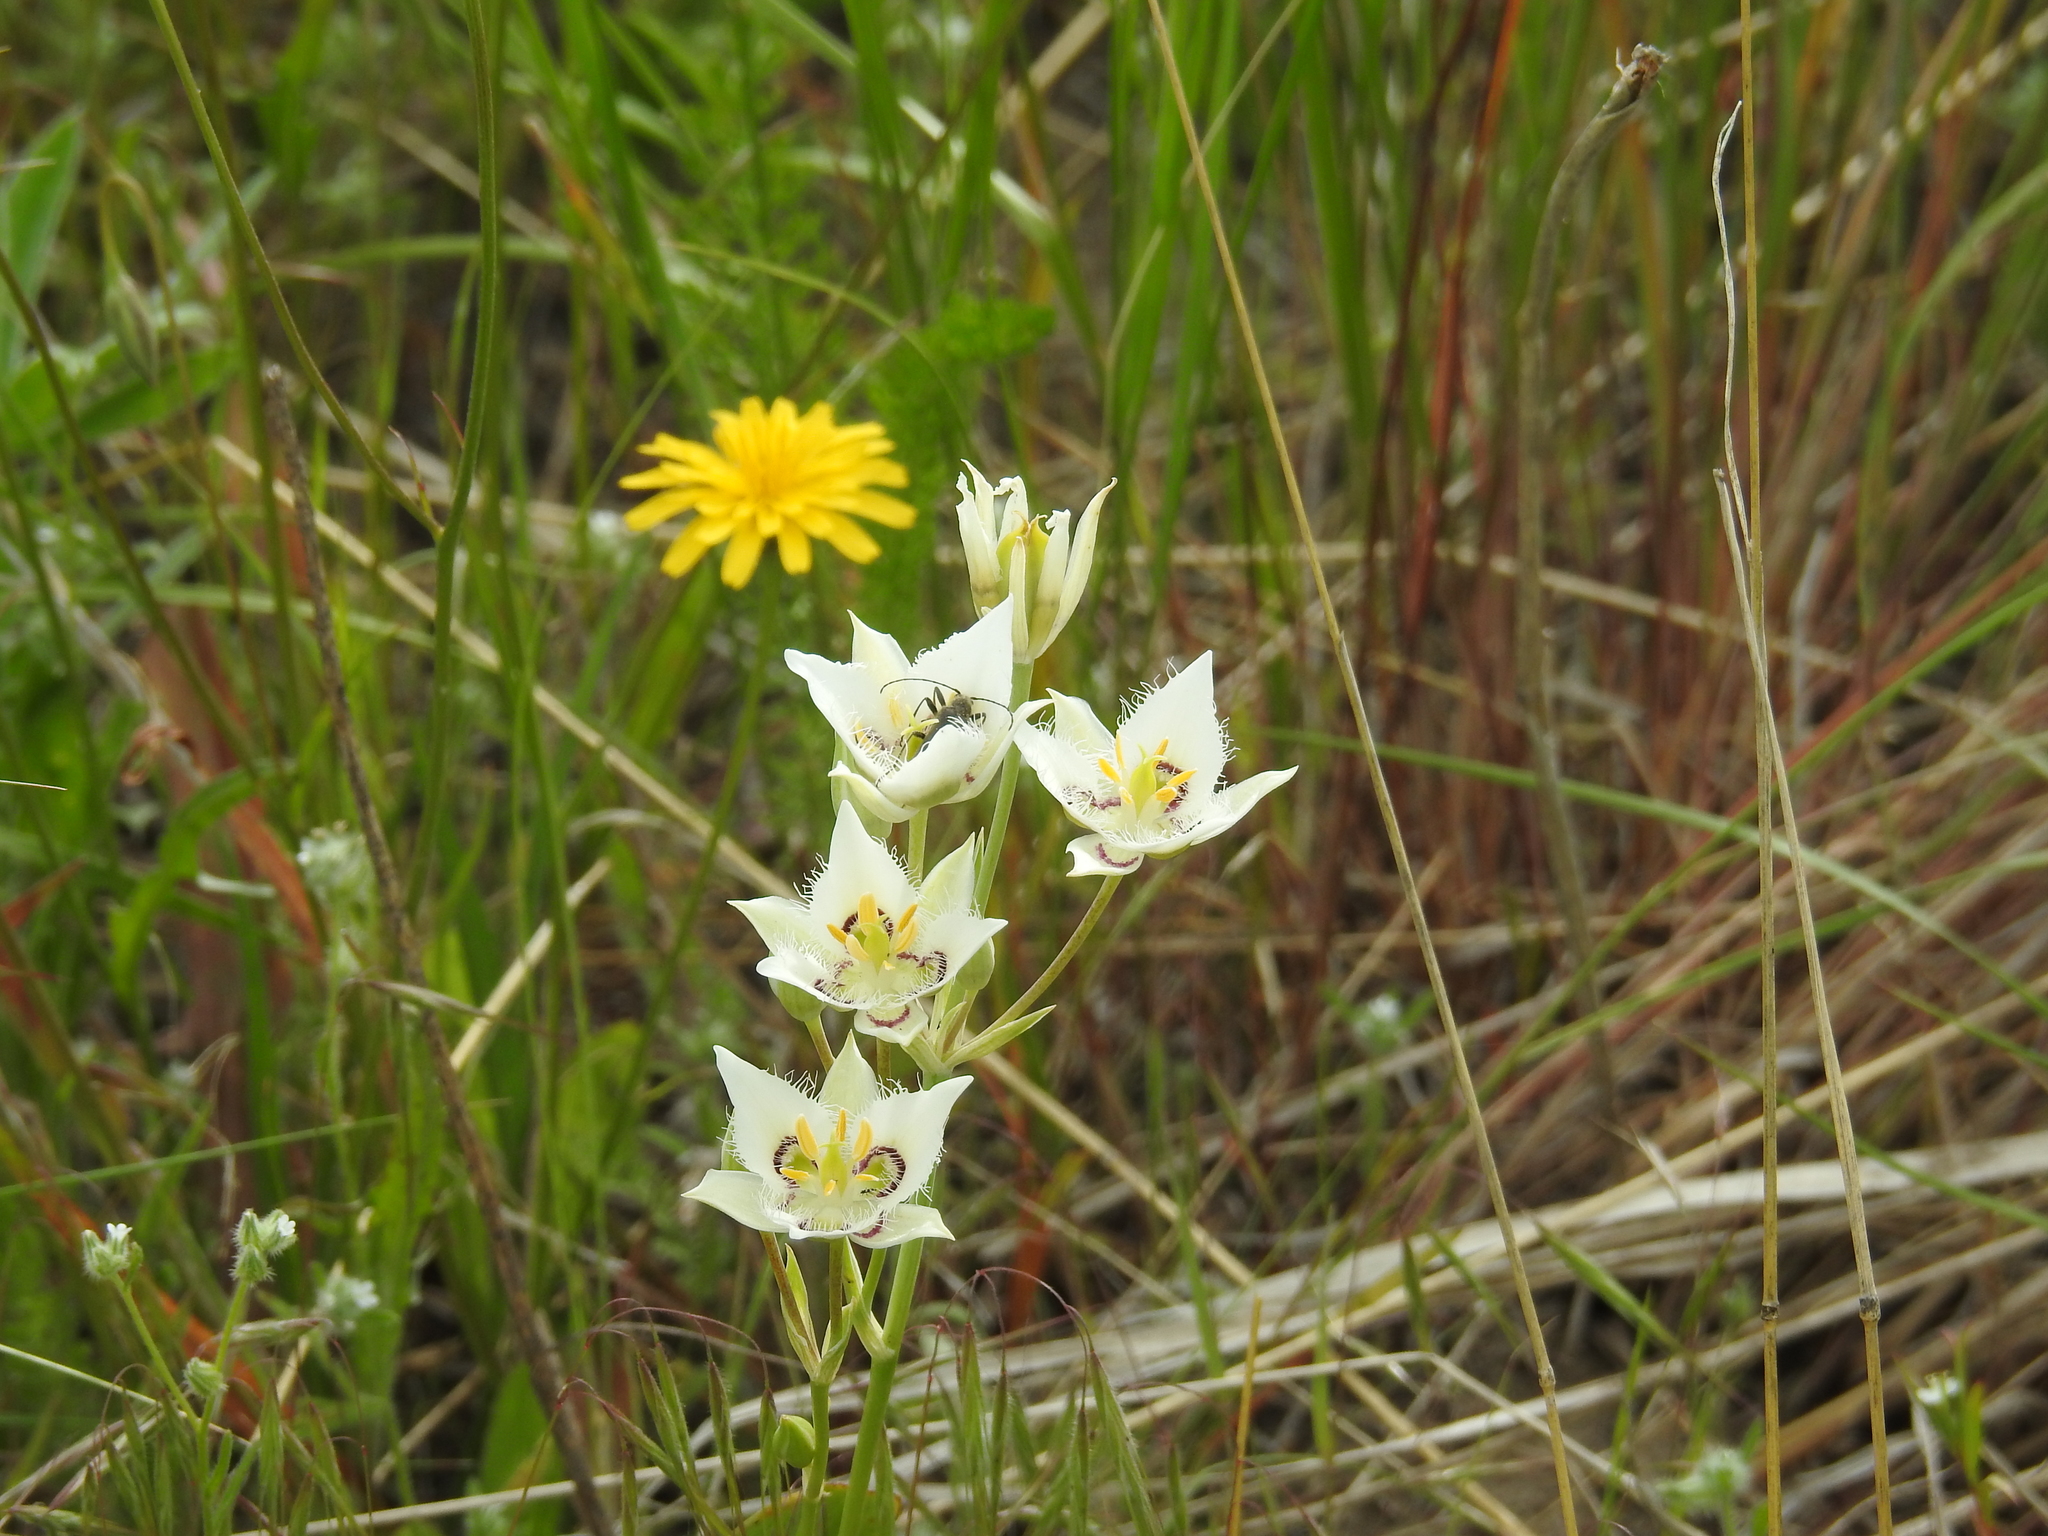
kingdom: Plantae
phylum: Tracheophyta
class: Liliopsida
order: Liliales
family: Liliaceae
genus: Calochortus
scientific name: Calochortus lyallii
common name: Lyall's mariposa lily
